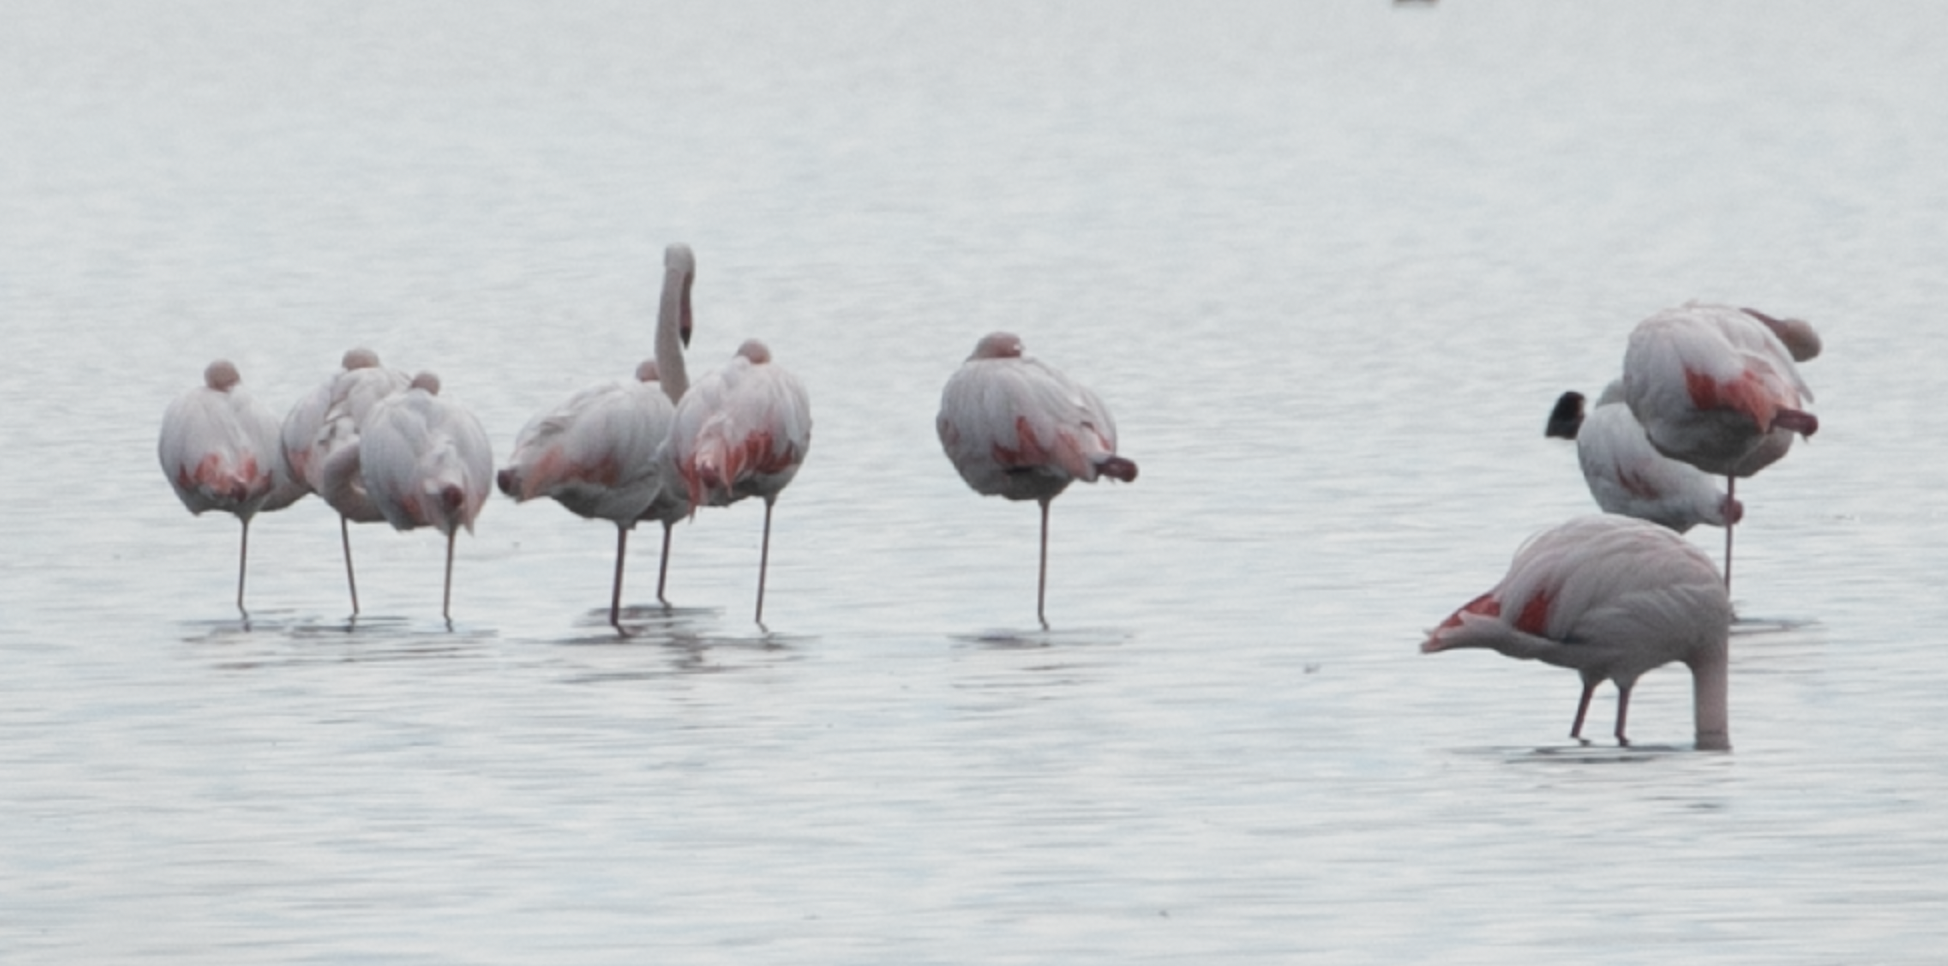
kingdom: Animalia
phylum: Chordata
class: Aves
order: Phoenicopteriformes
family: Phoenicopteridae
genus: Phoenicopterus
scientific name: Phoenicopterus roseus
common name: Greater flamingo
